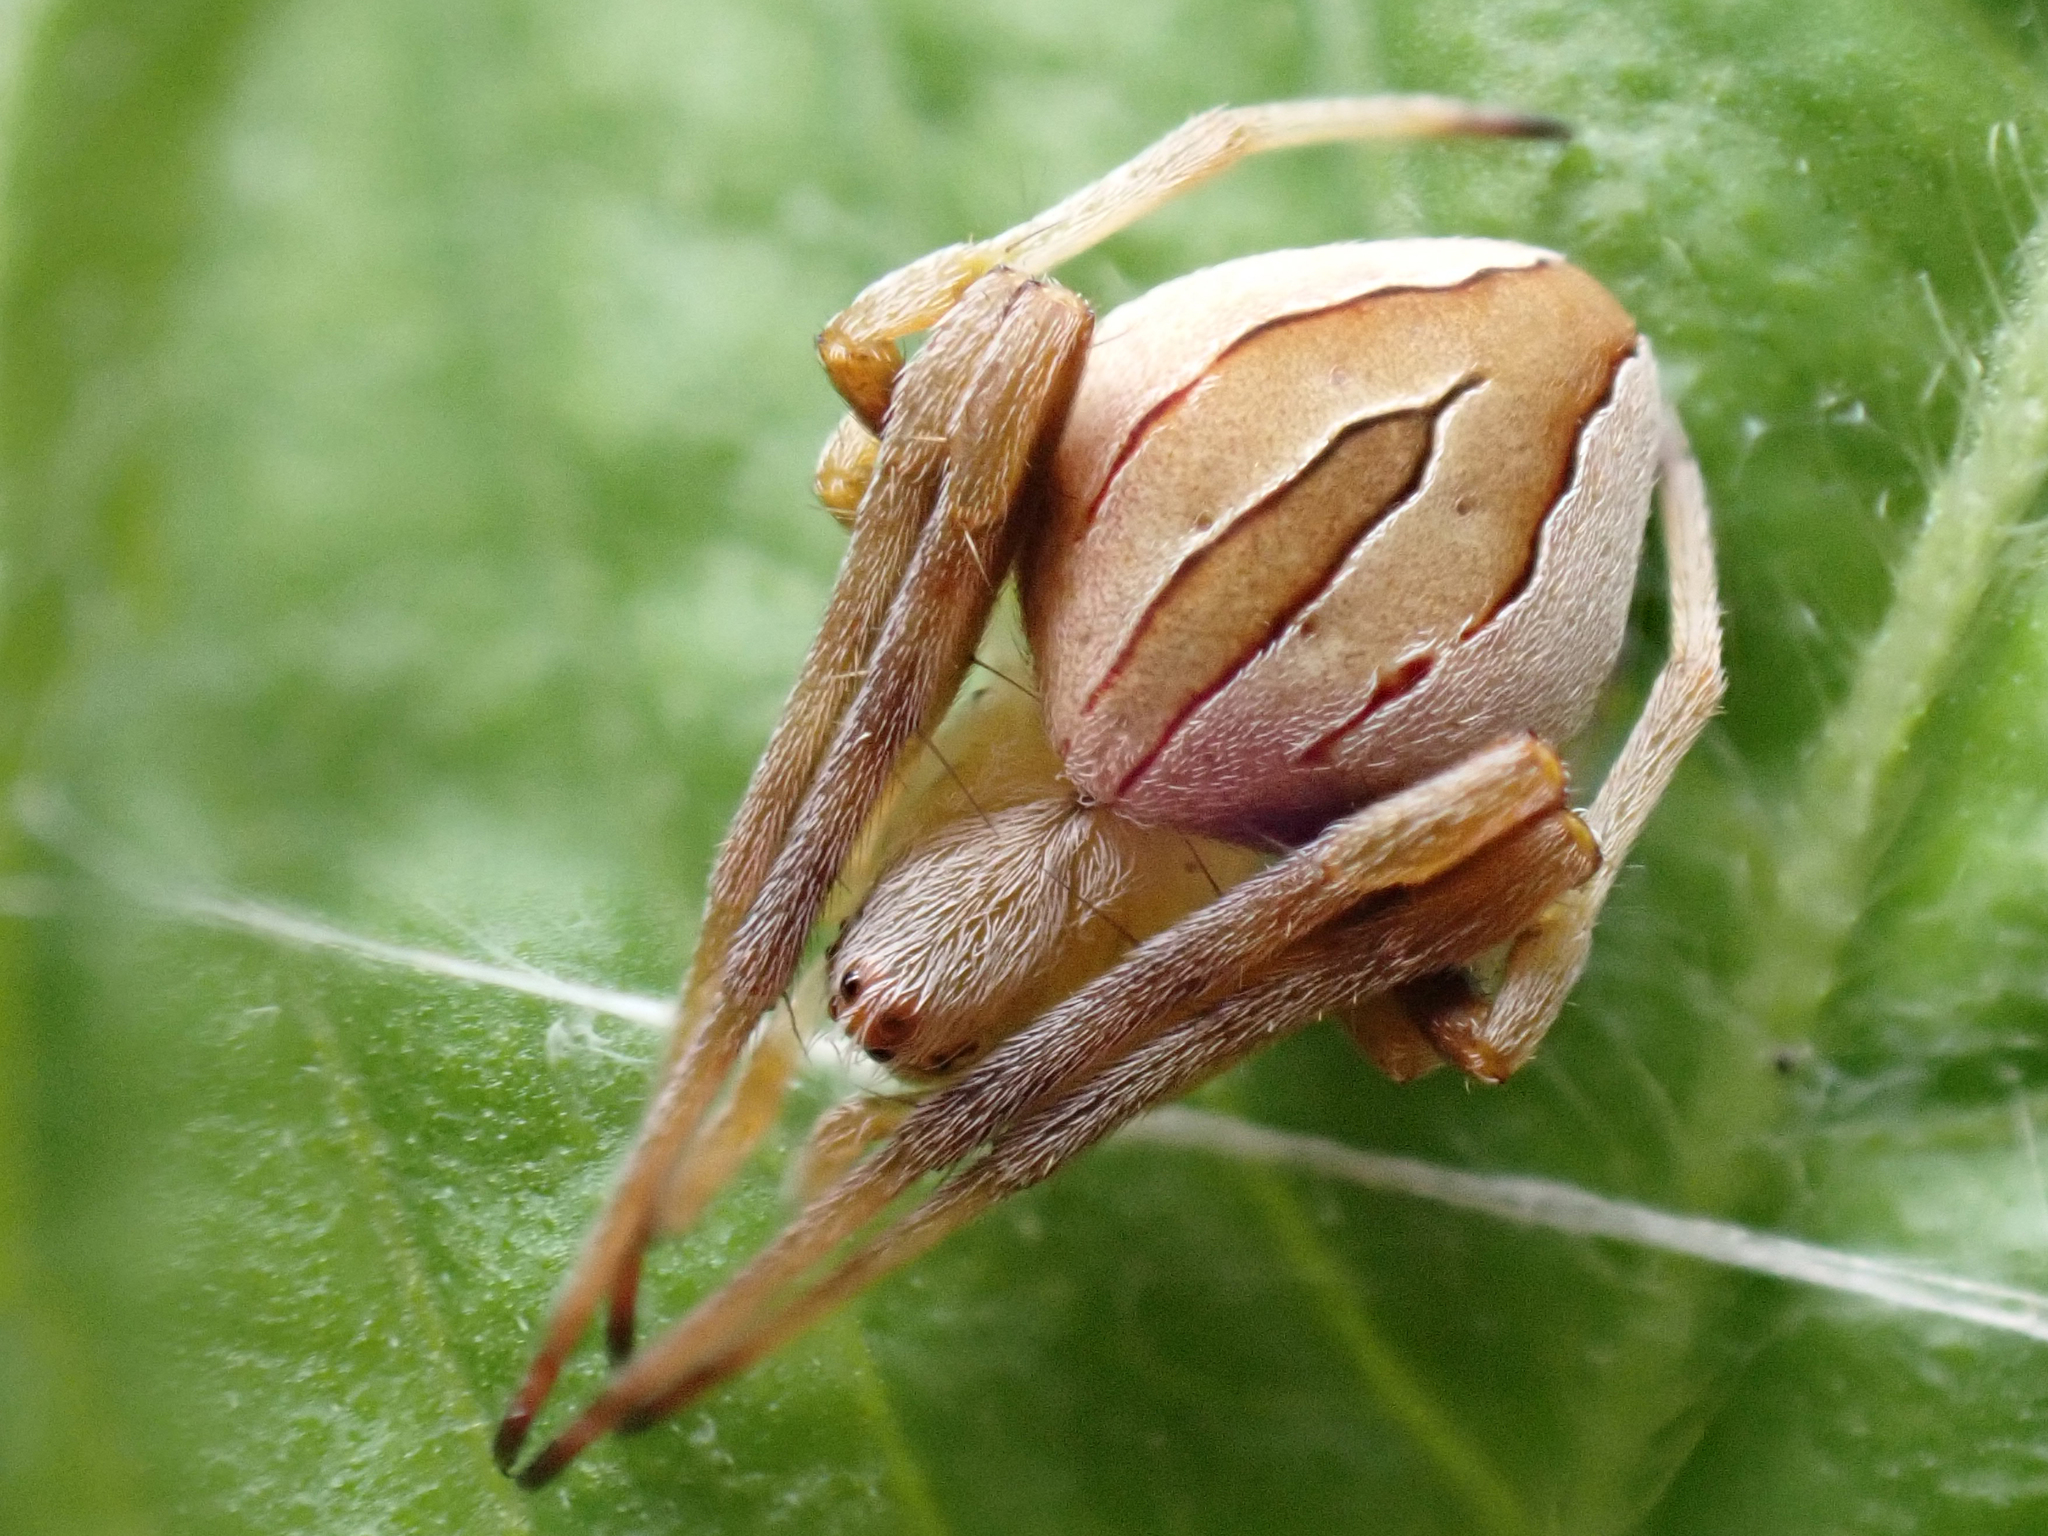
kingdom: Animalia
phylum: Arthropoda
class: Arachnida
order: Araneae
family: Araneidae
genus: Acacesia
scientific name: Acacesia hamata
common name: Orb weavers
